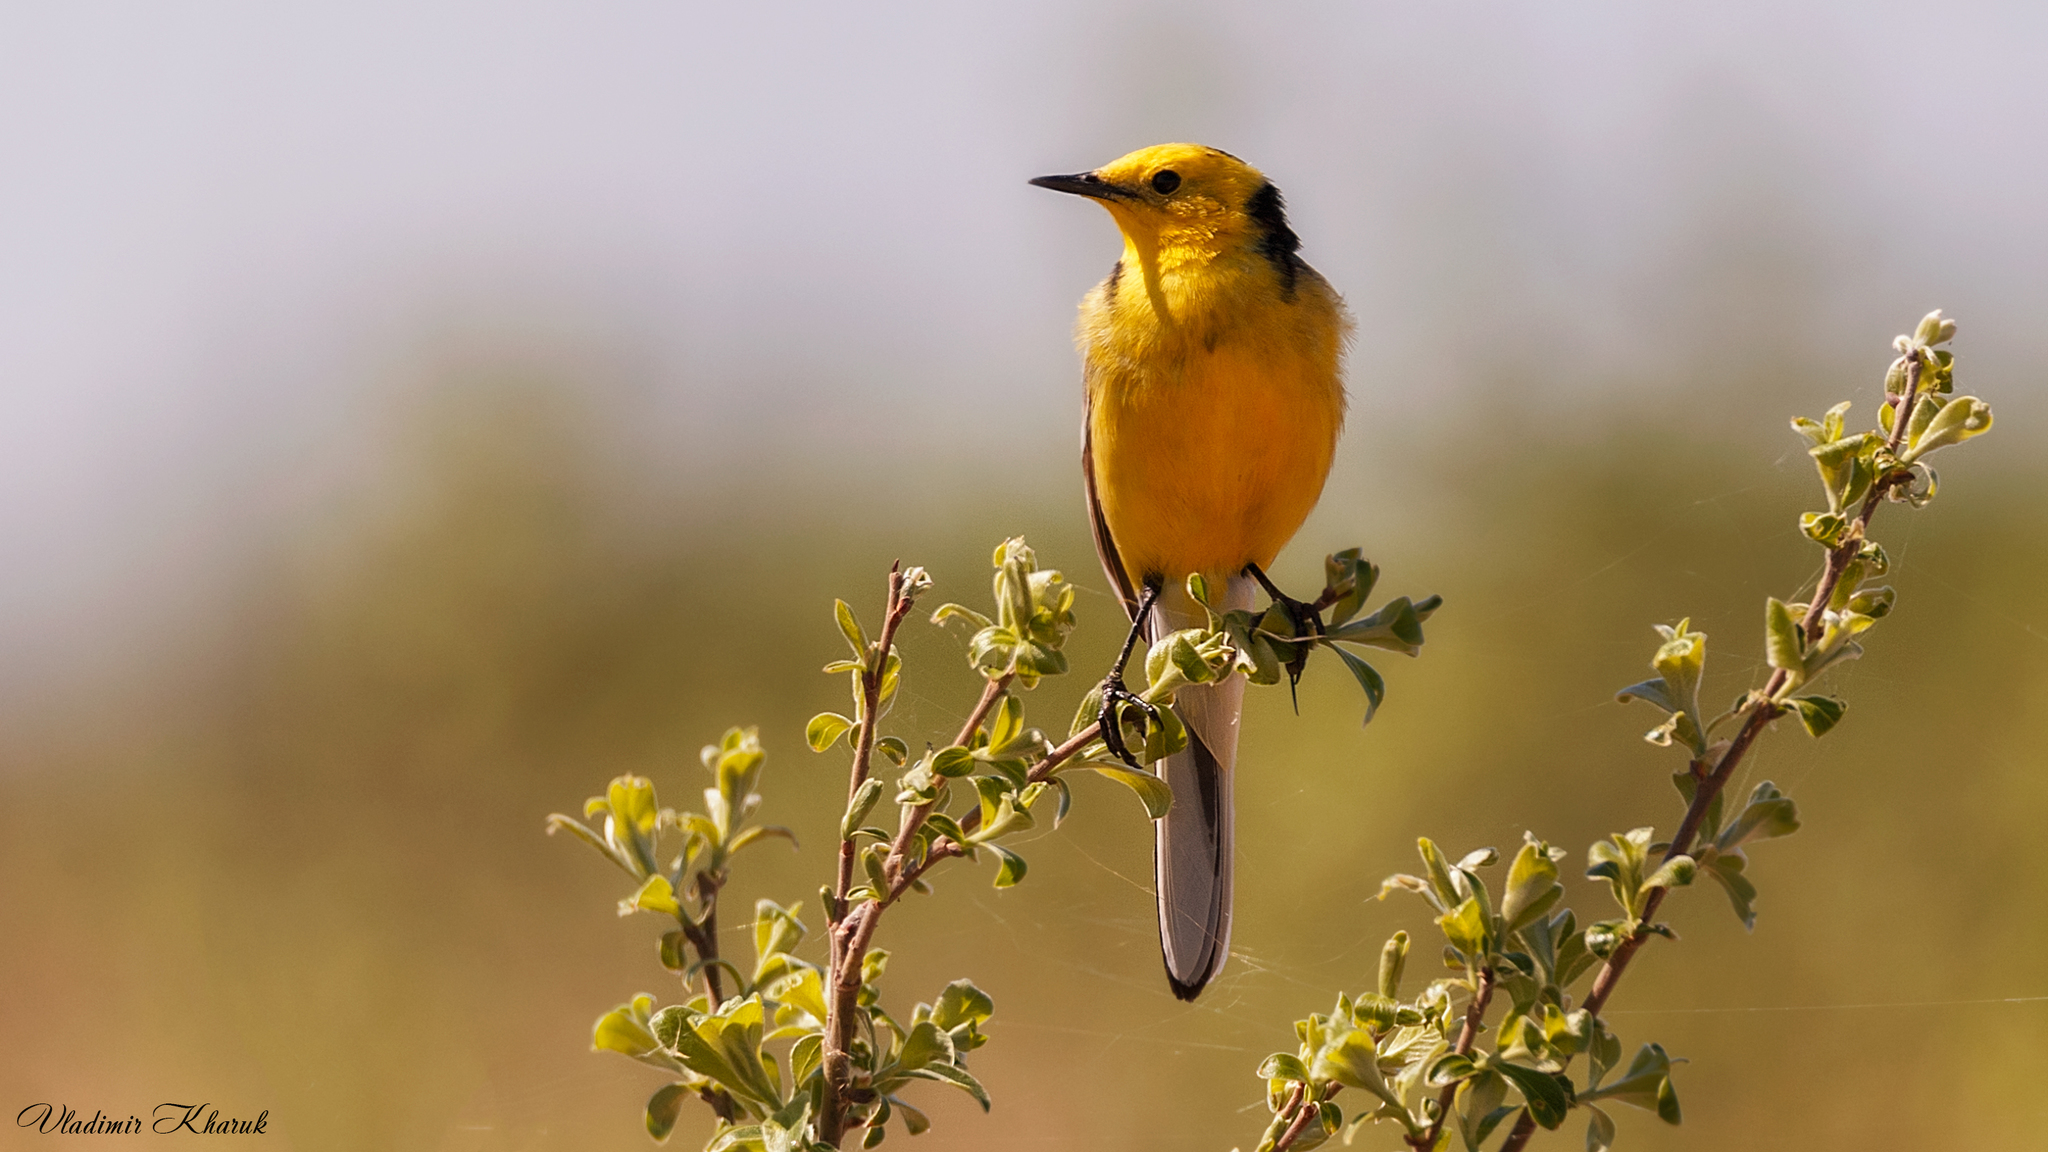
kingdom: Animalia
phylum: Chordata
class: Aves
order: Passeriformes
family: Motacillidae
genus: Motacilla
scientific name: Motacilla citreola
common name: Citrine wagtail
